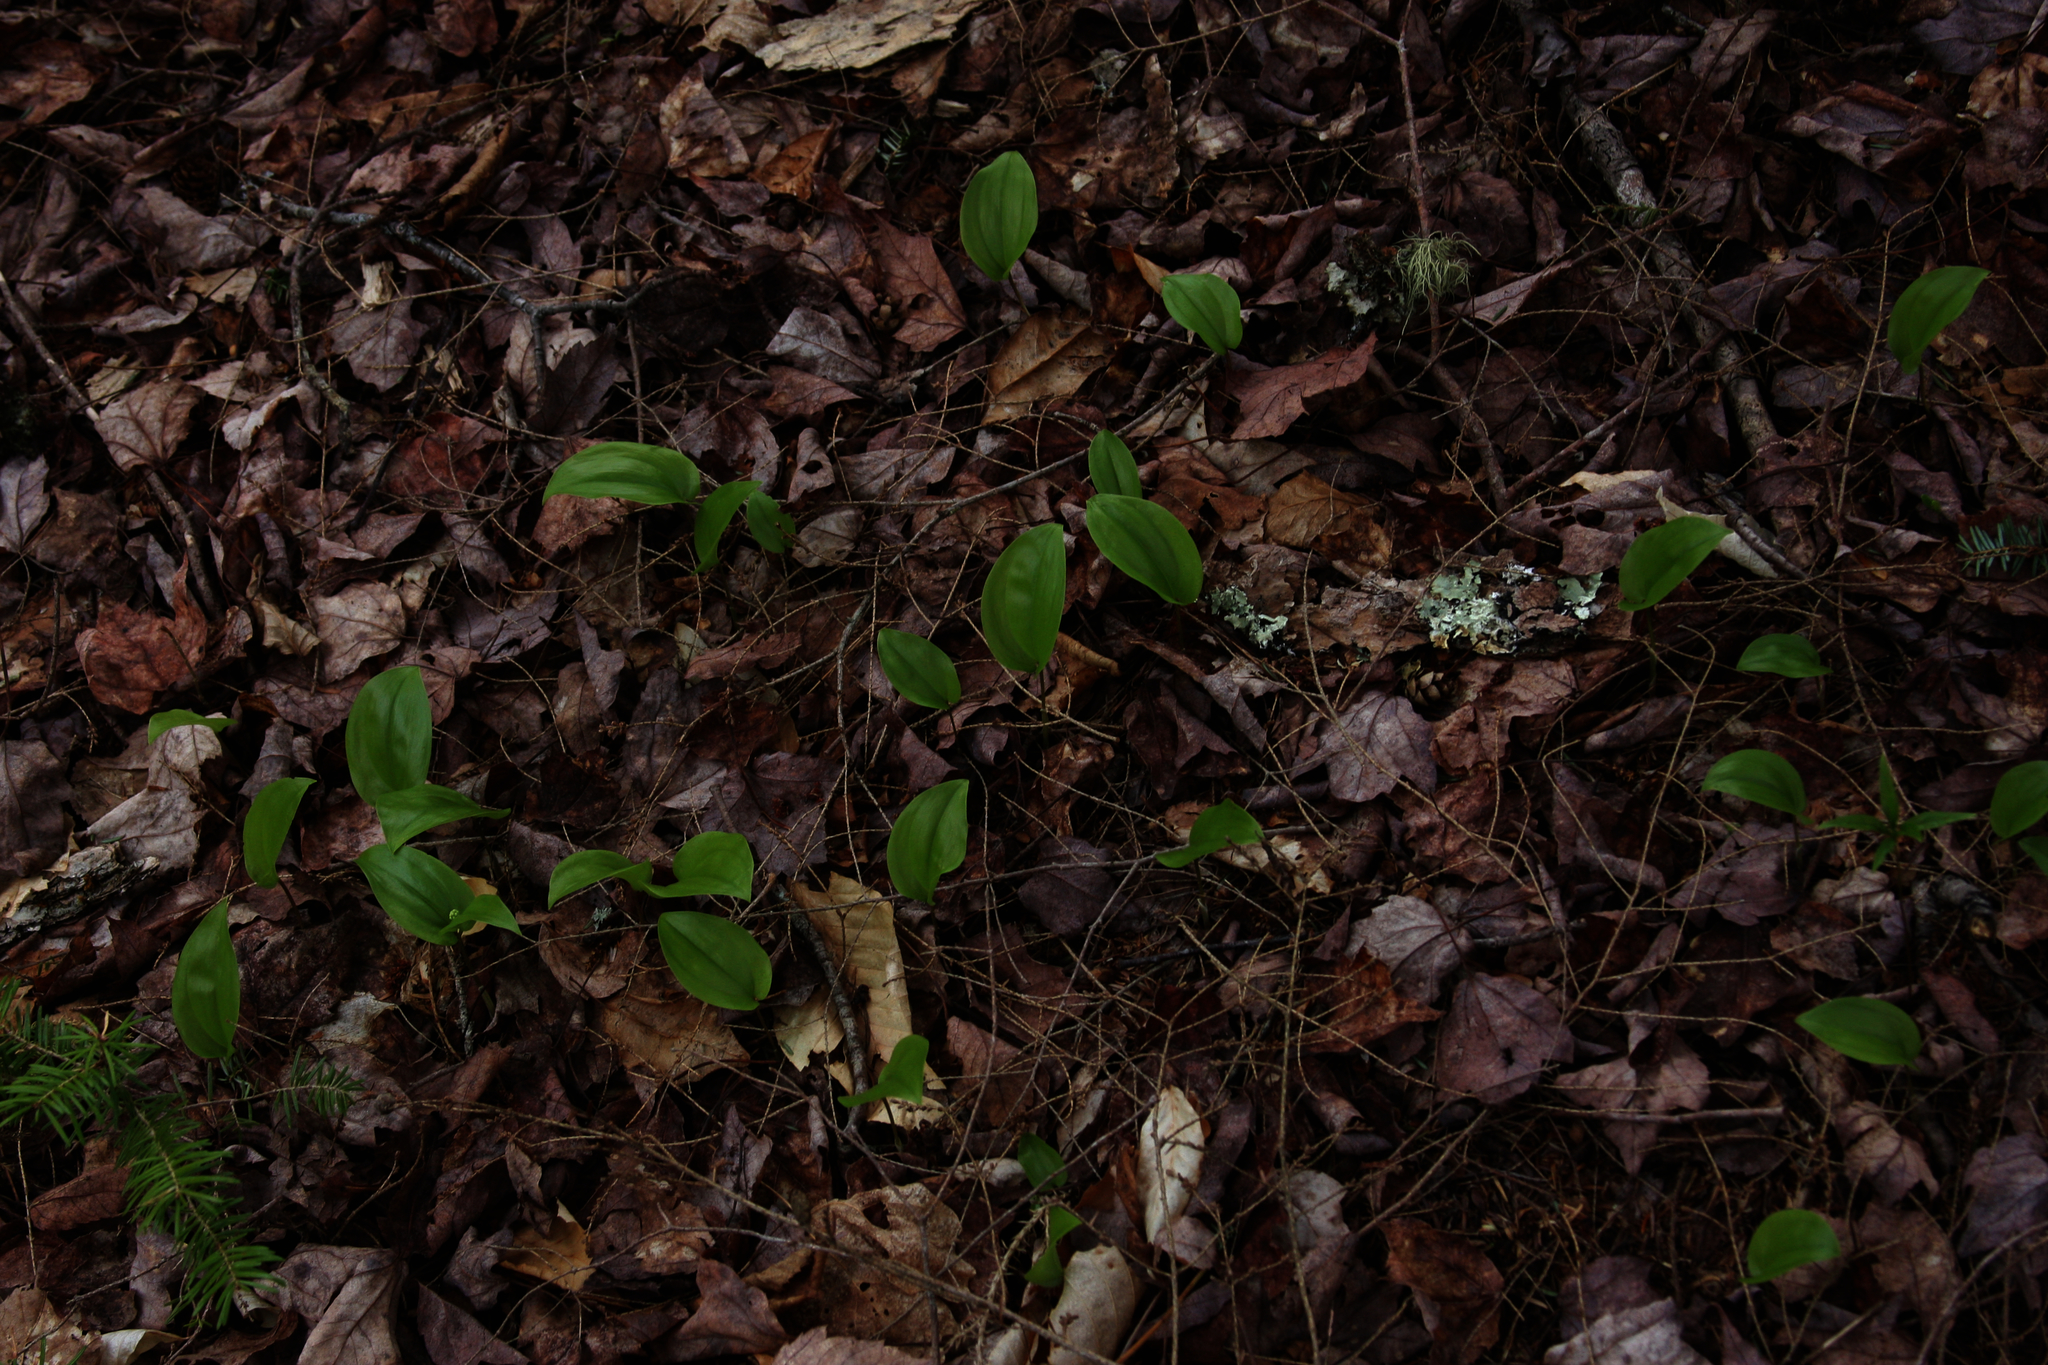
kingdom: Plantae
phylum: Tracheophyta
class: Liliopsida
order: Asparagales
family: Asparagaceae
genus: Maianthemum
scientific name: Maianthemum canadense
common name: False lily-of-the-valley
